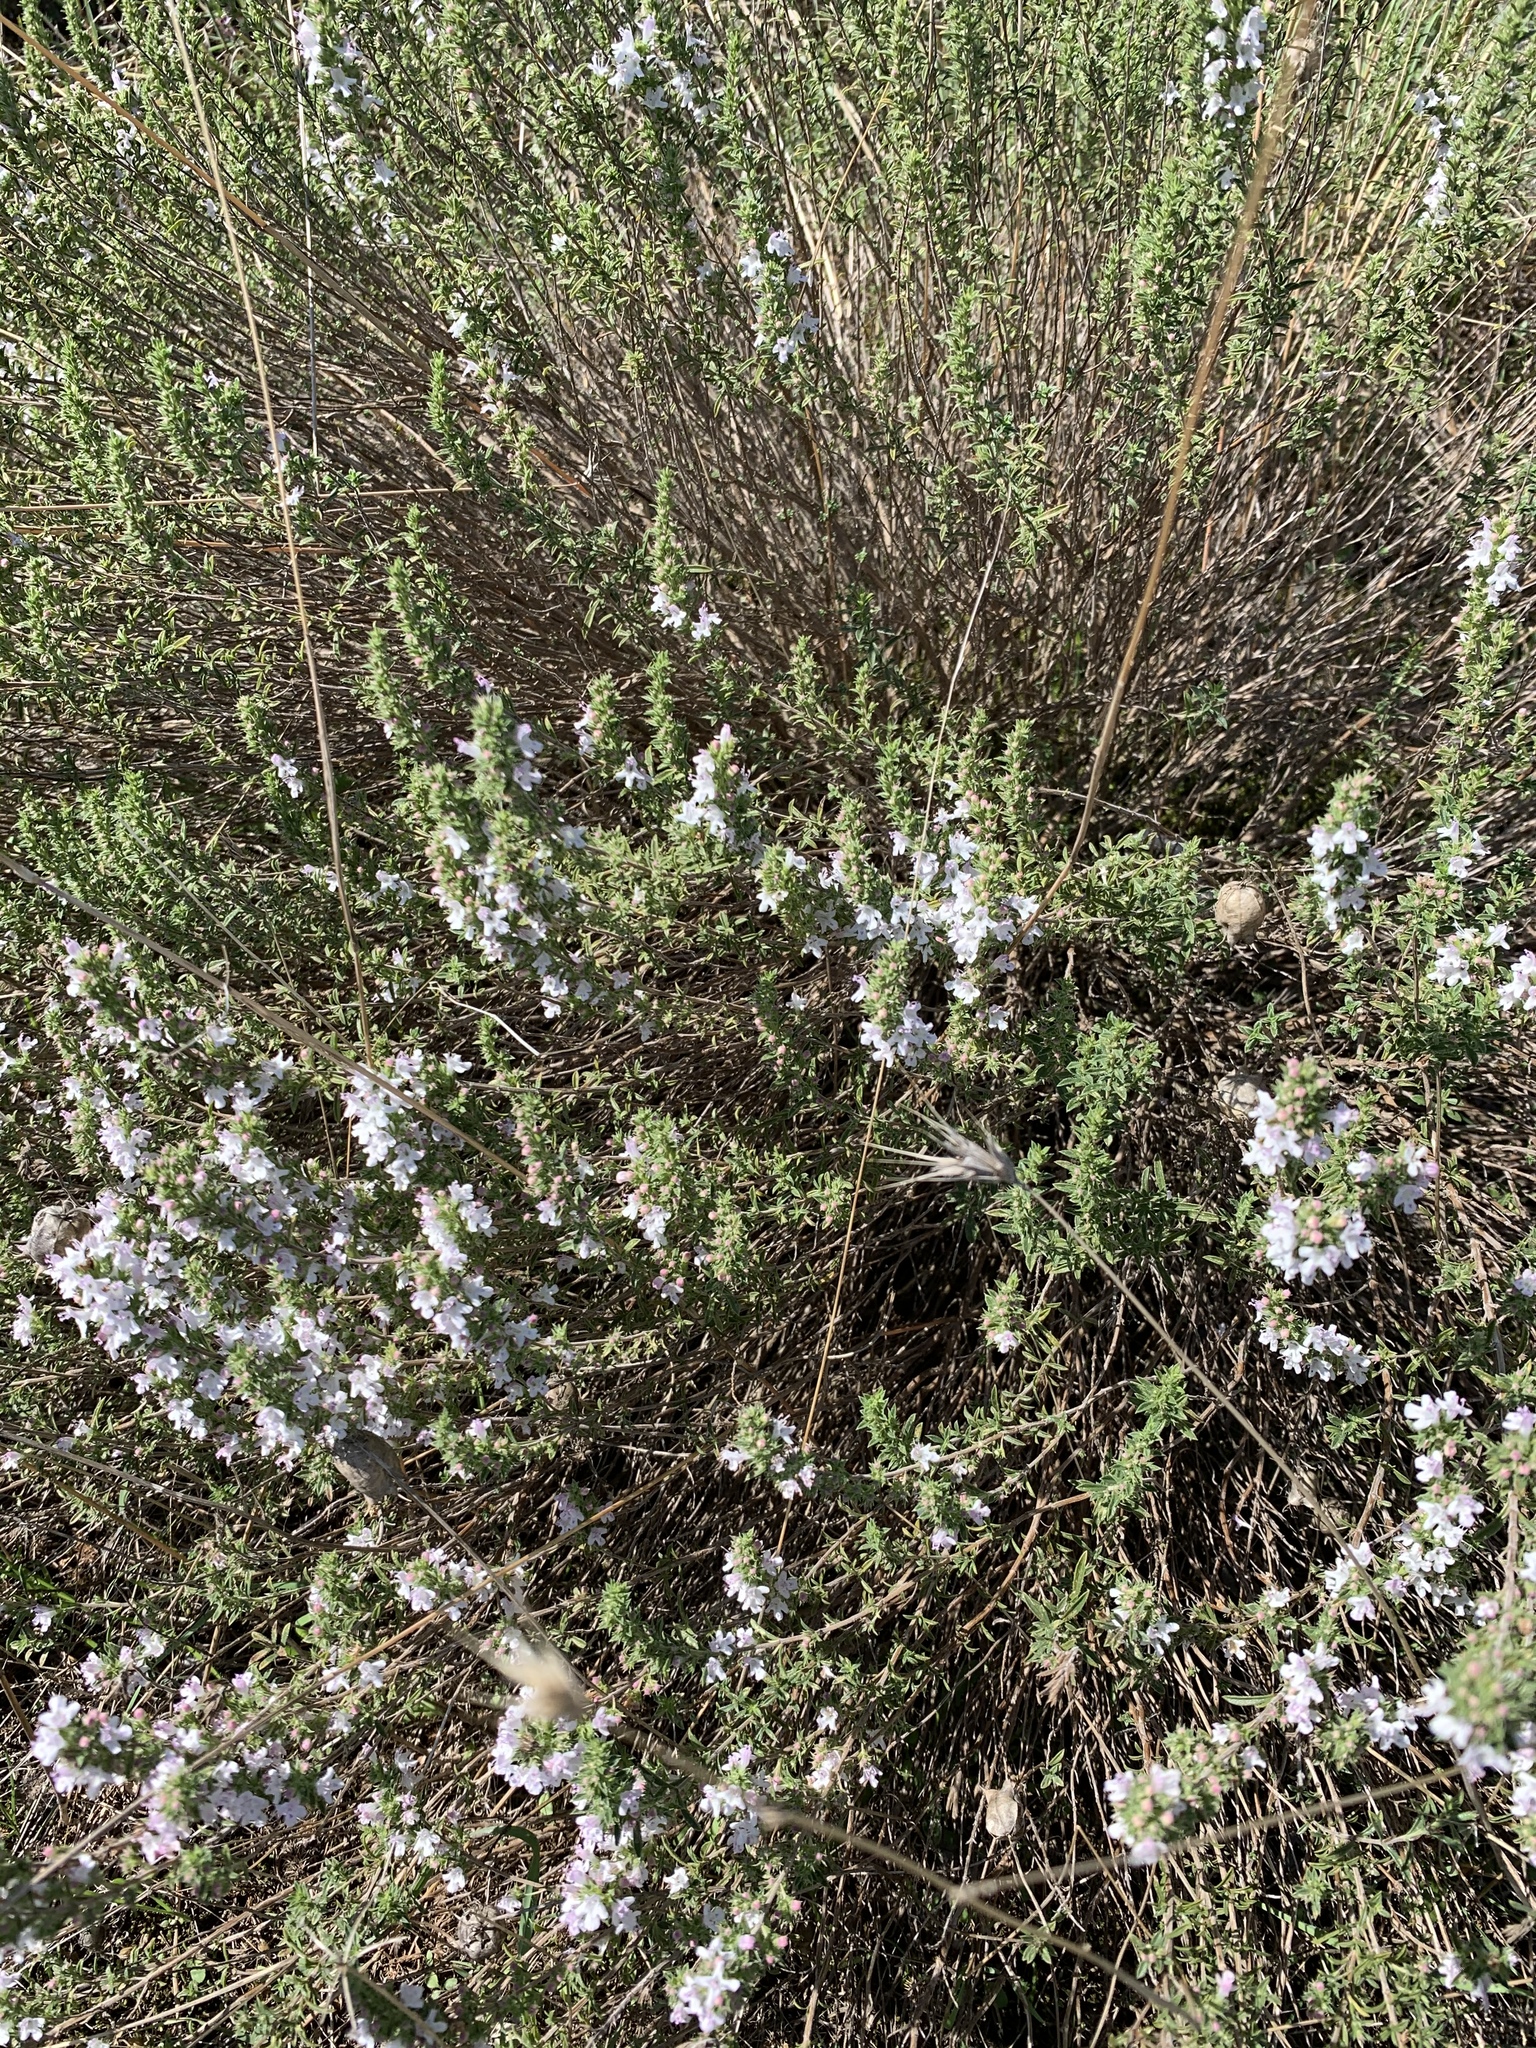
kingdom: Plantae
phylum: Tracheophyta
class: Magnoliopsida
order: Lamiales
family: Lamiaceae
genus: Satureja
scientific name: Satureja montana
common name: Winter savory
